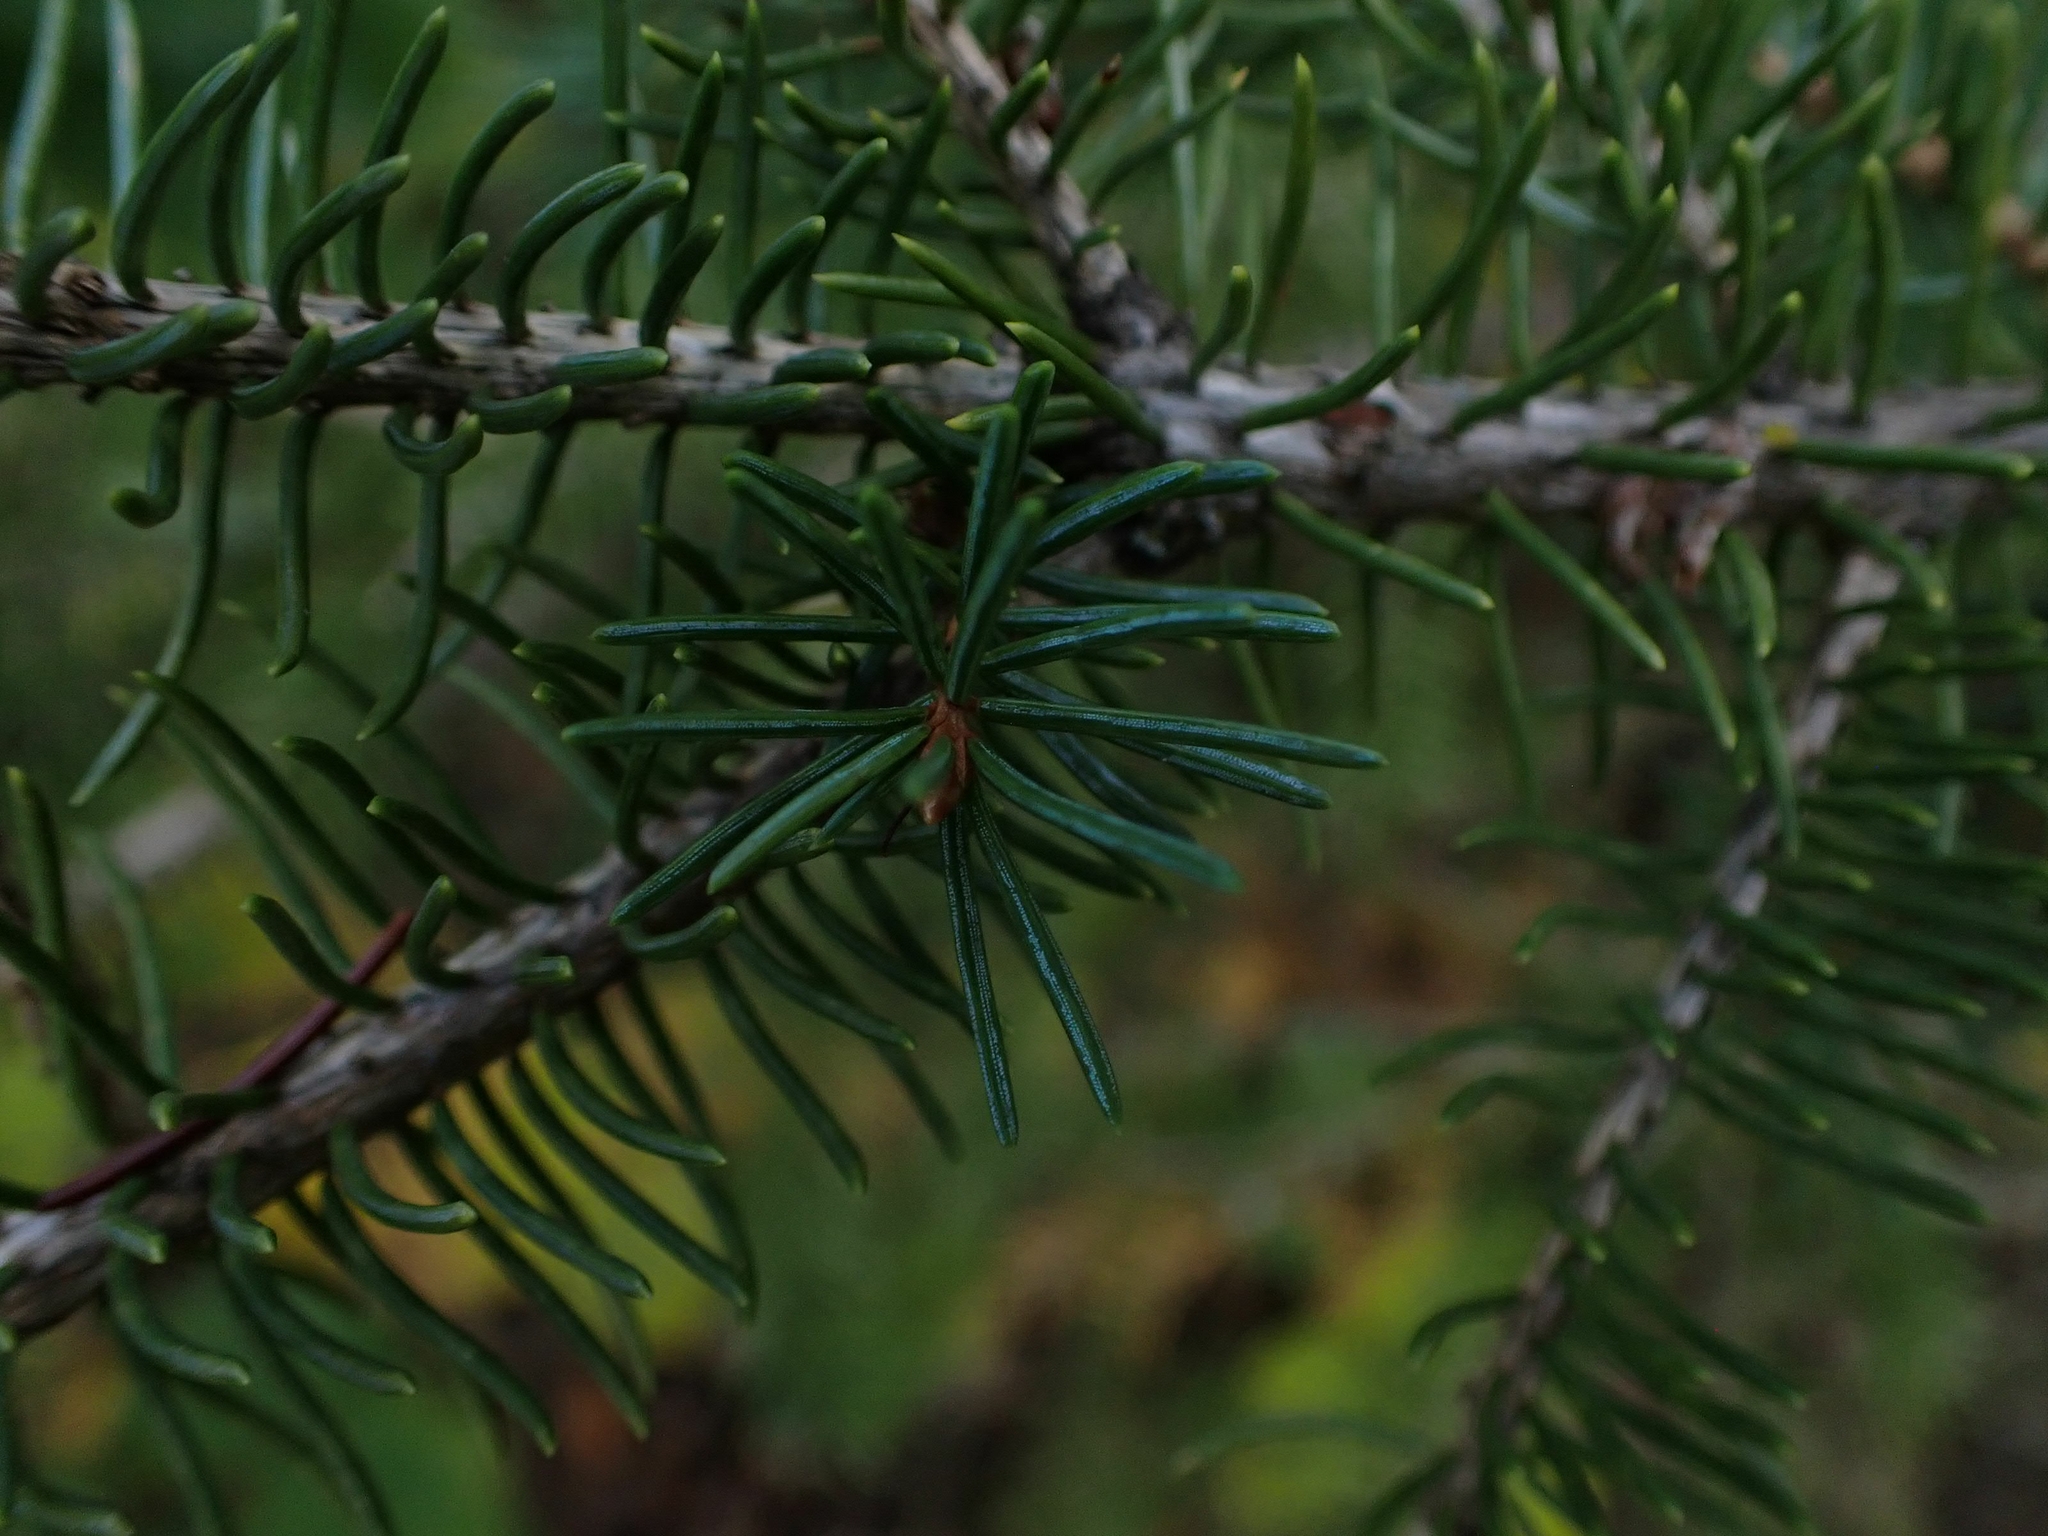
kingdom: Plantae
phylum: Tracheophyta
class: Pinopsida
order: Pinales
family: Pinaceae
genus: Picea
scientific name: Picea glauca
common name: White spruce
